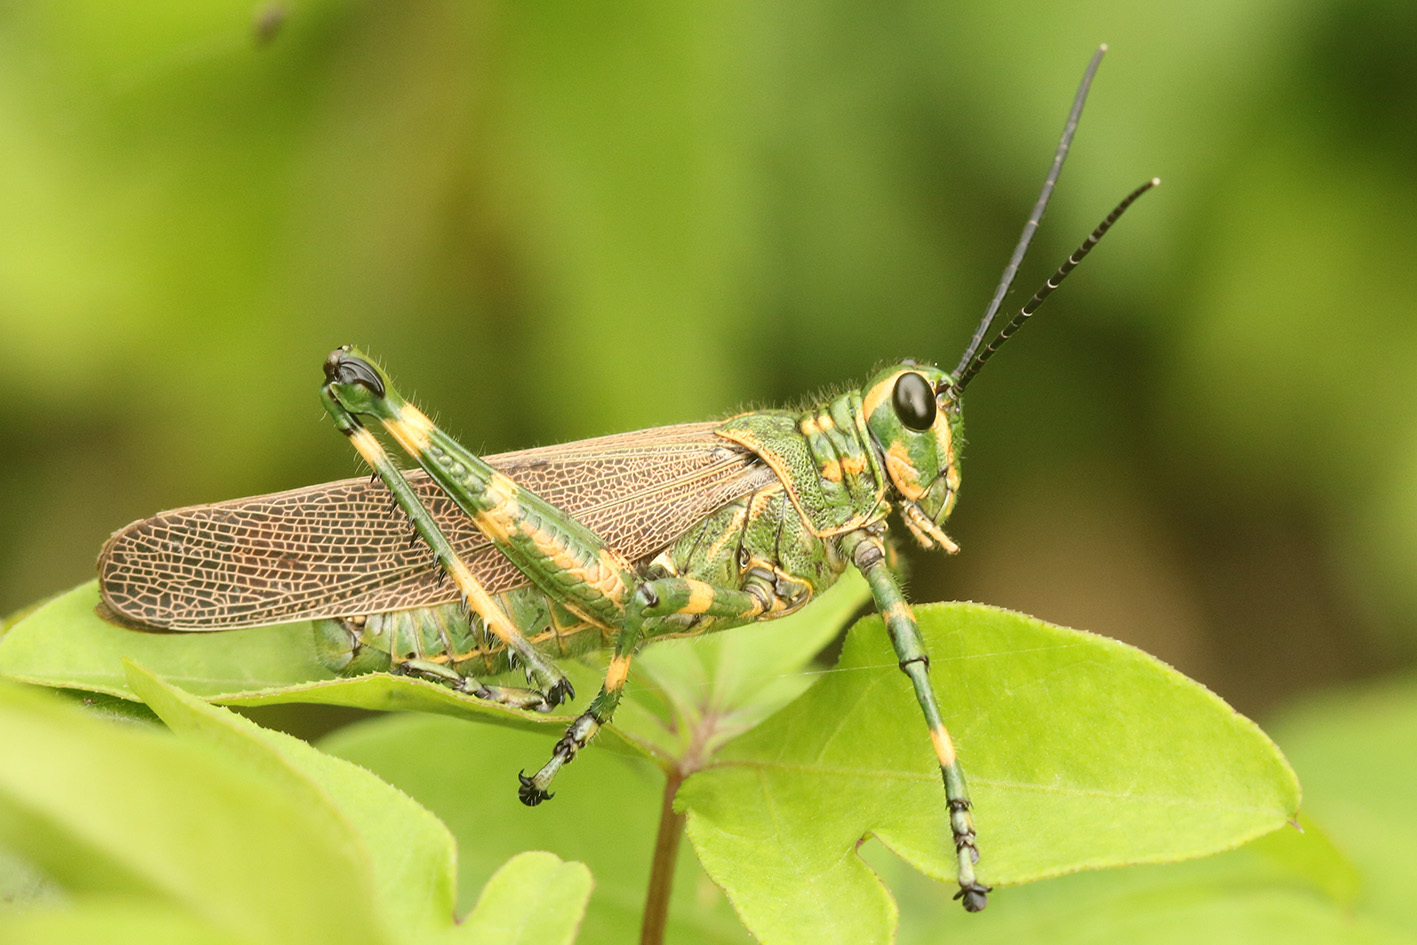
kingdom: Animalia
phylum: Arthropoda
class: Insecta
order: Orthoptera
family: Romaleidae
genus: Chromacris
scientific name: Chromacris speciosa
